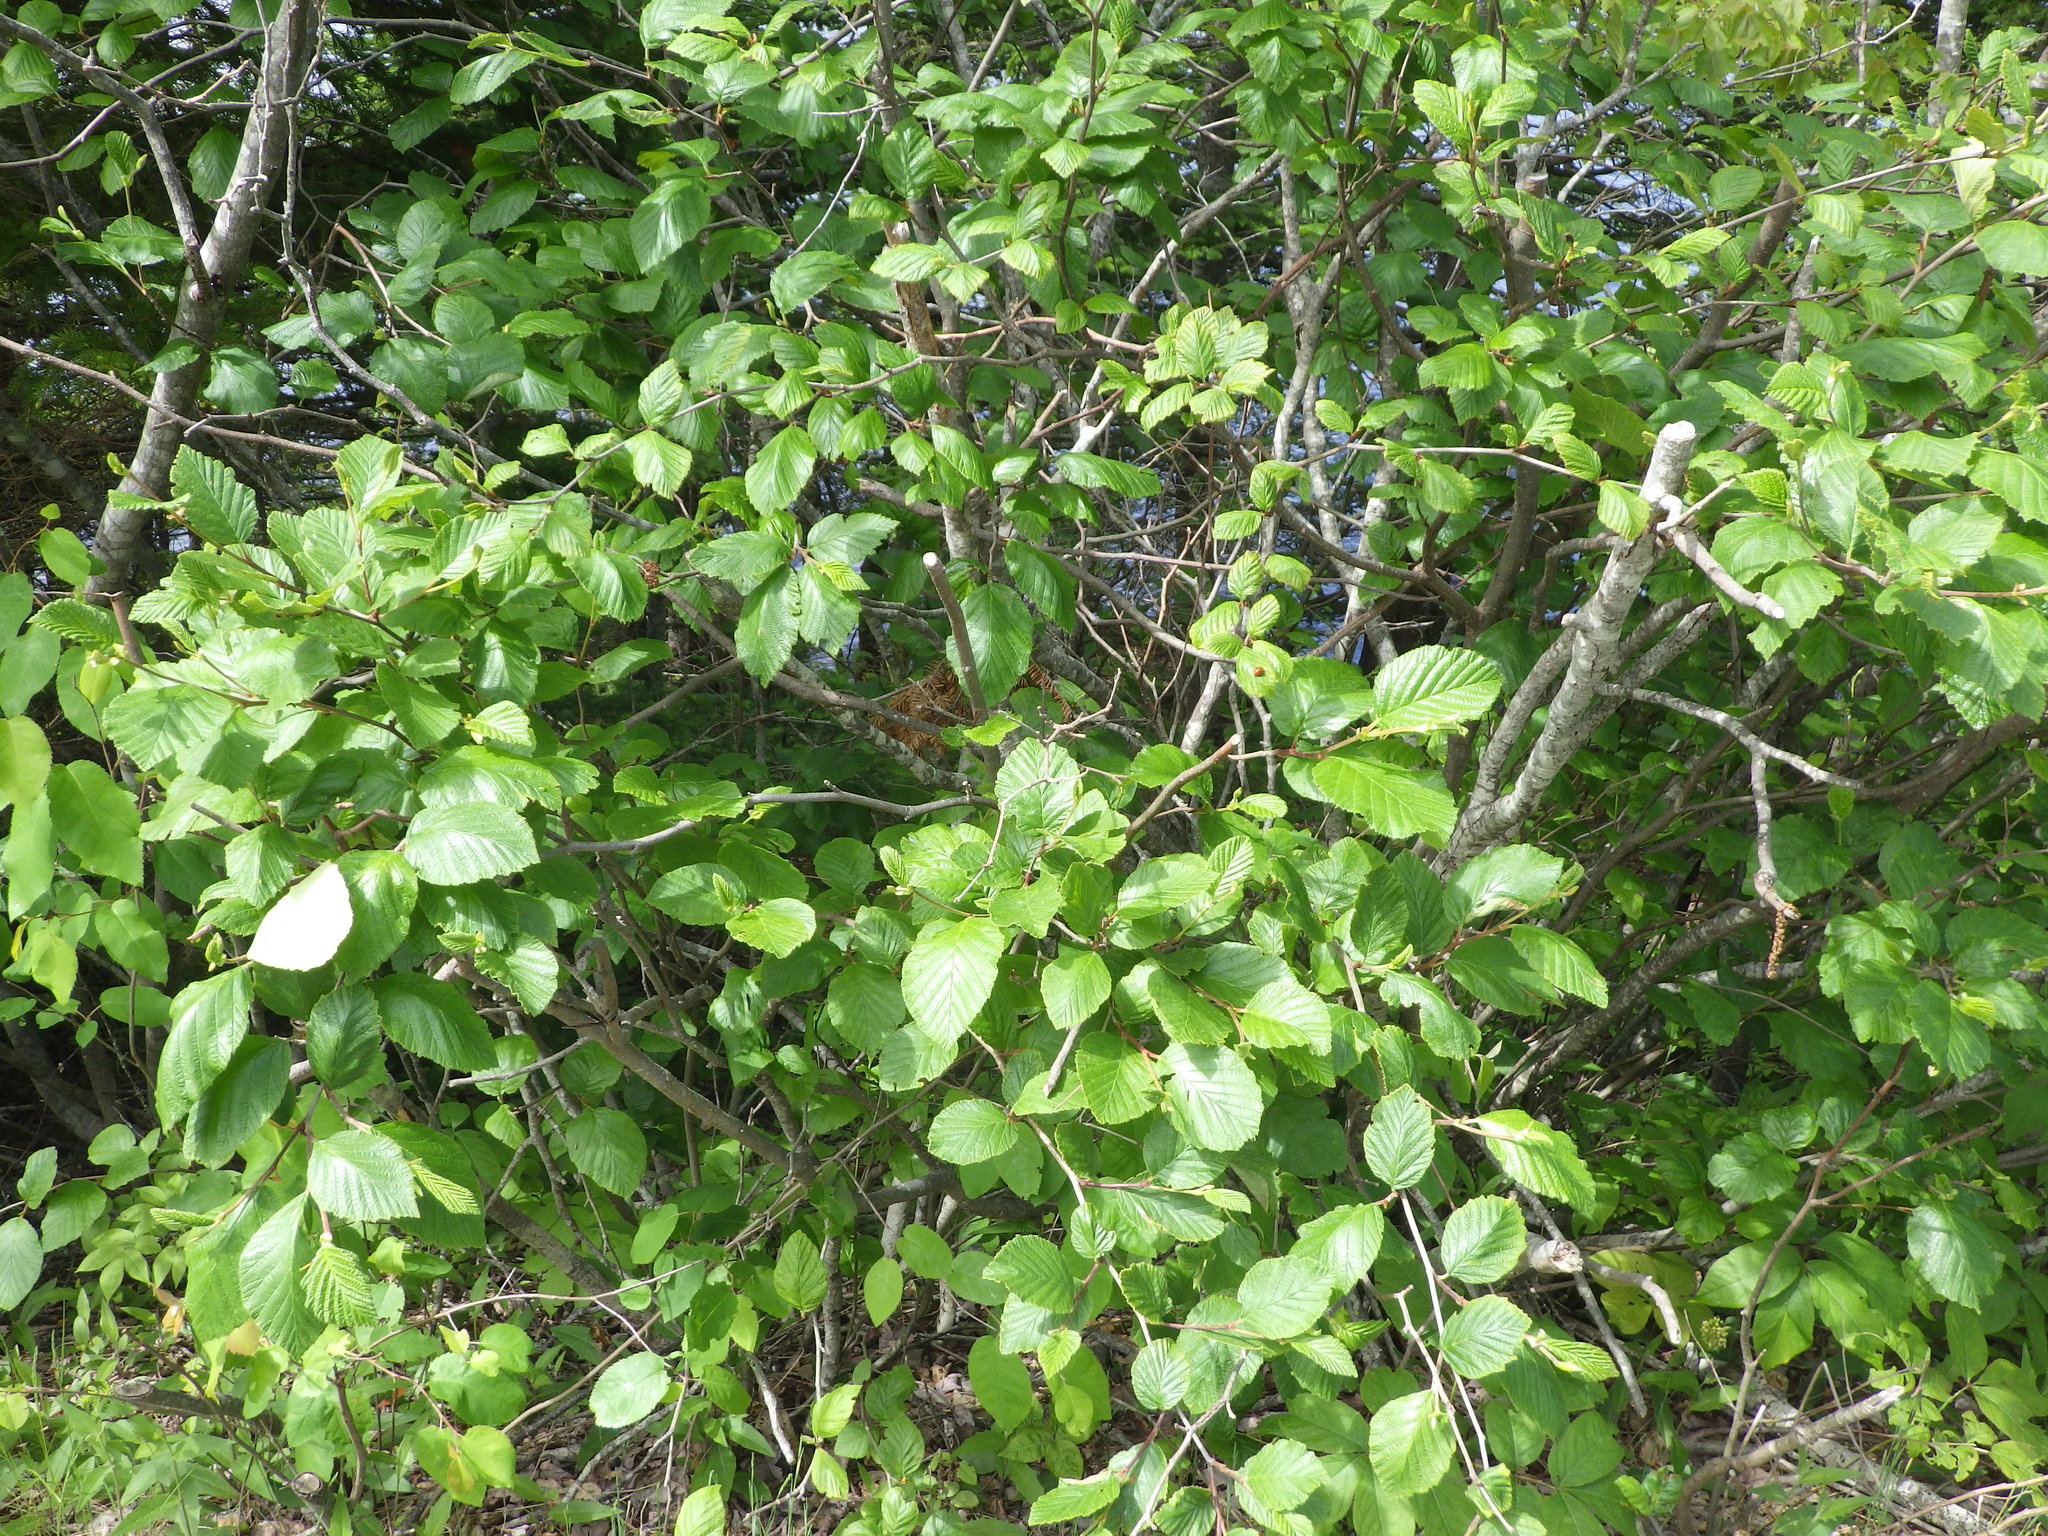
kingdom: Plantae
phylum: Tracheophyta
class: Magnoliopsida
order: Fagales
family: Betulaceae
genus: Alnus
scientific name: Alnus incana
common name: Grey alder
